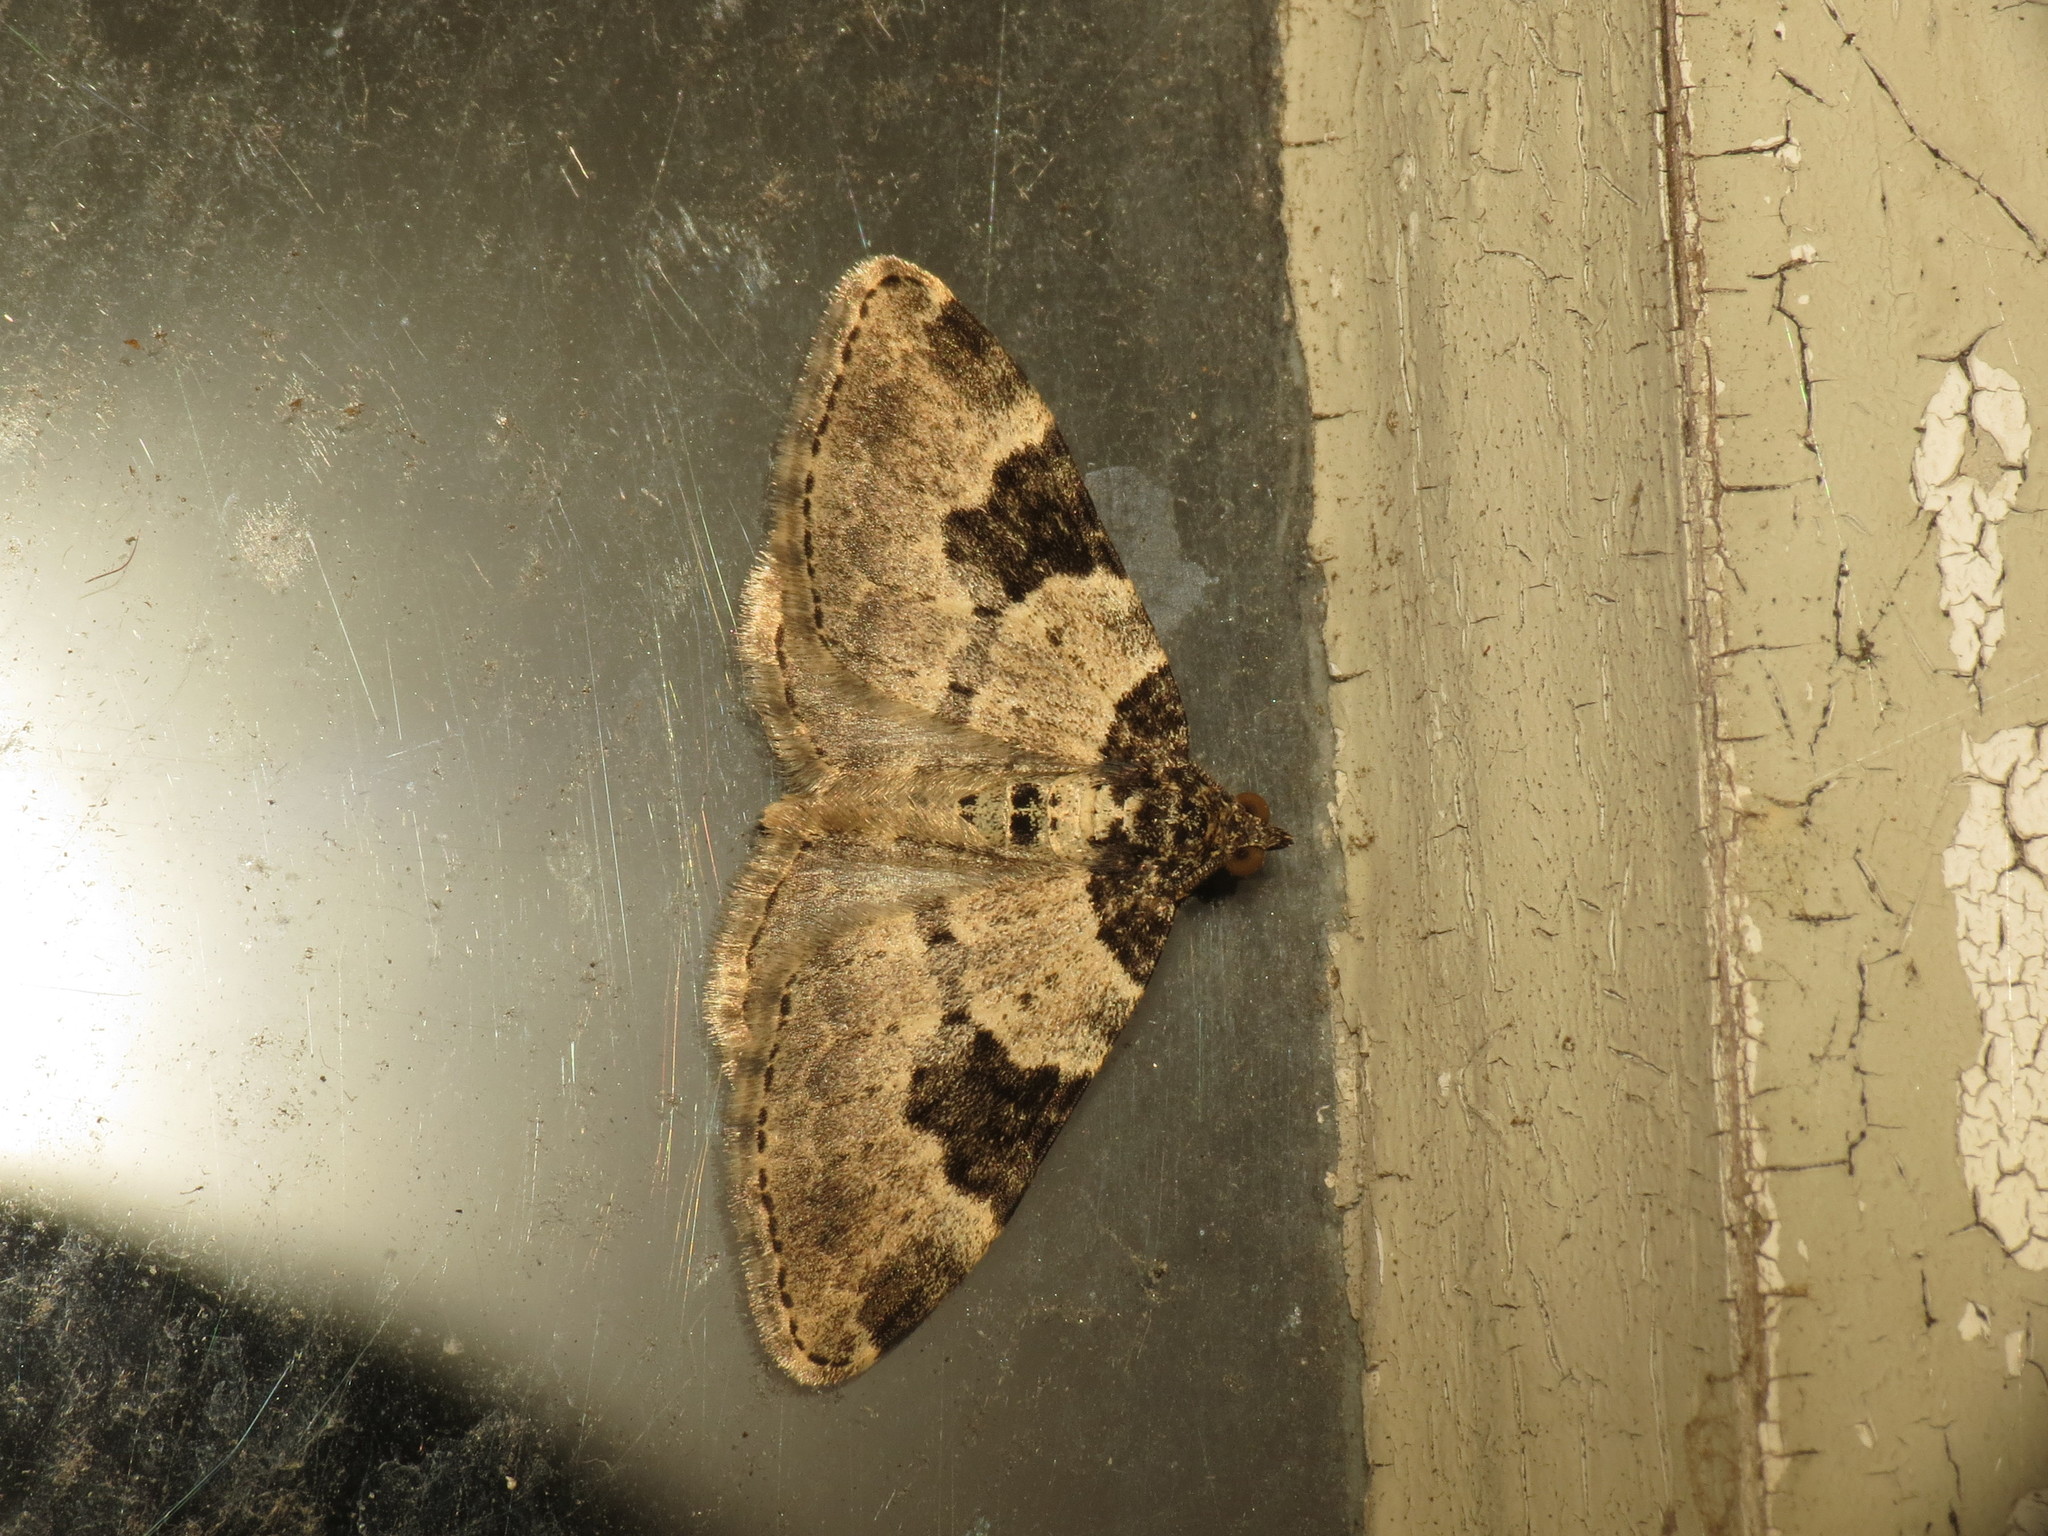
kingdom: Animalia
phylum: Arthropoda
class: Insecta
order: Lepidoptera
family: Geometridae
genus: Xanthorhoe
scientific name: Xanthorhoe fluctuata
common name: Garden carpet
